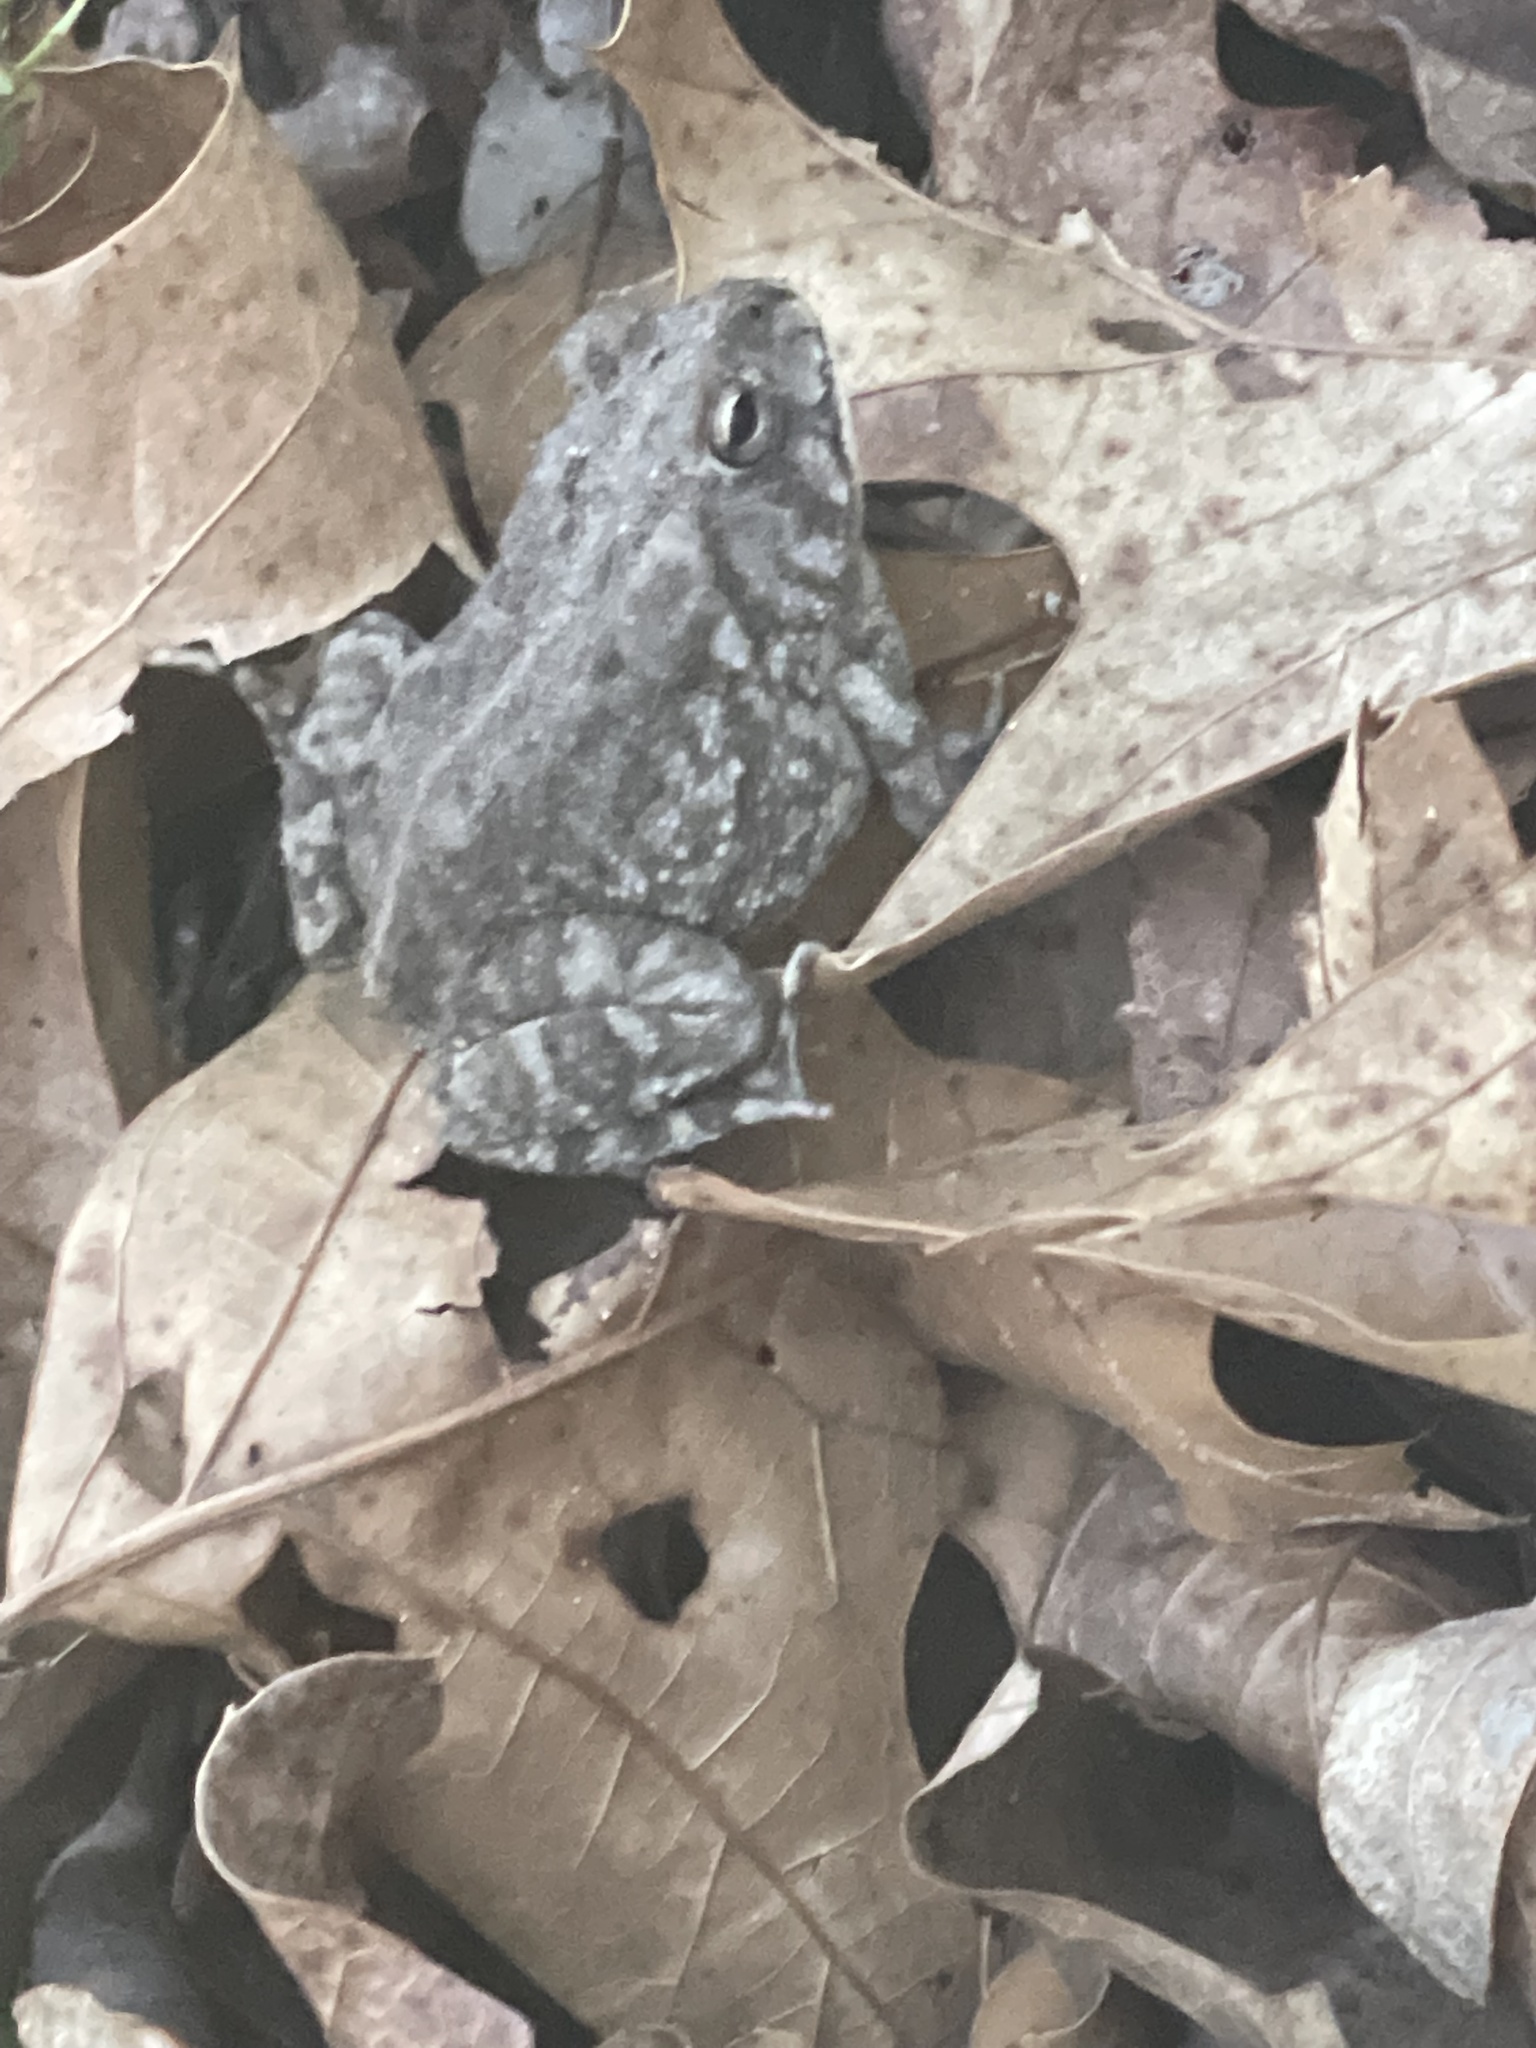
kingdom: Animalia
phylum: Chordata
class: Amphibia
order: Anura
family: Bufonidae
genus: Anaxyrus
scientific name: Anaxyrus fowleri
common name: Fowler's toad
